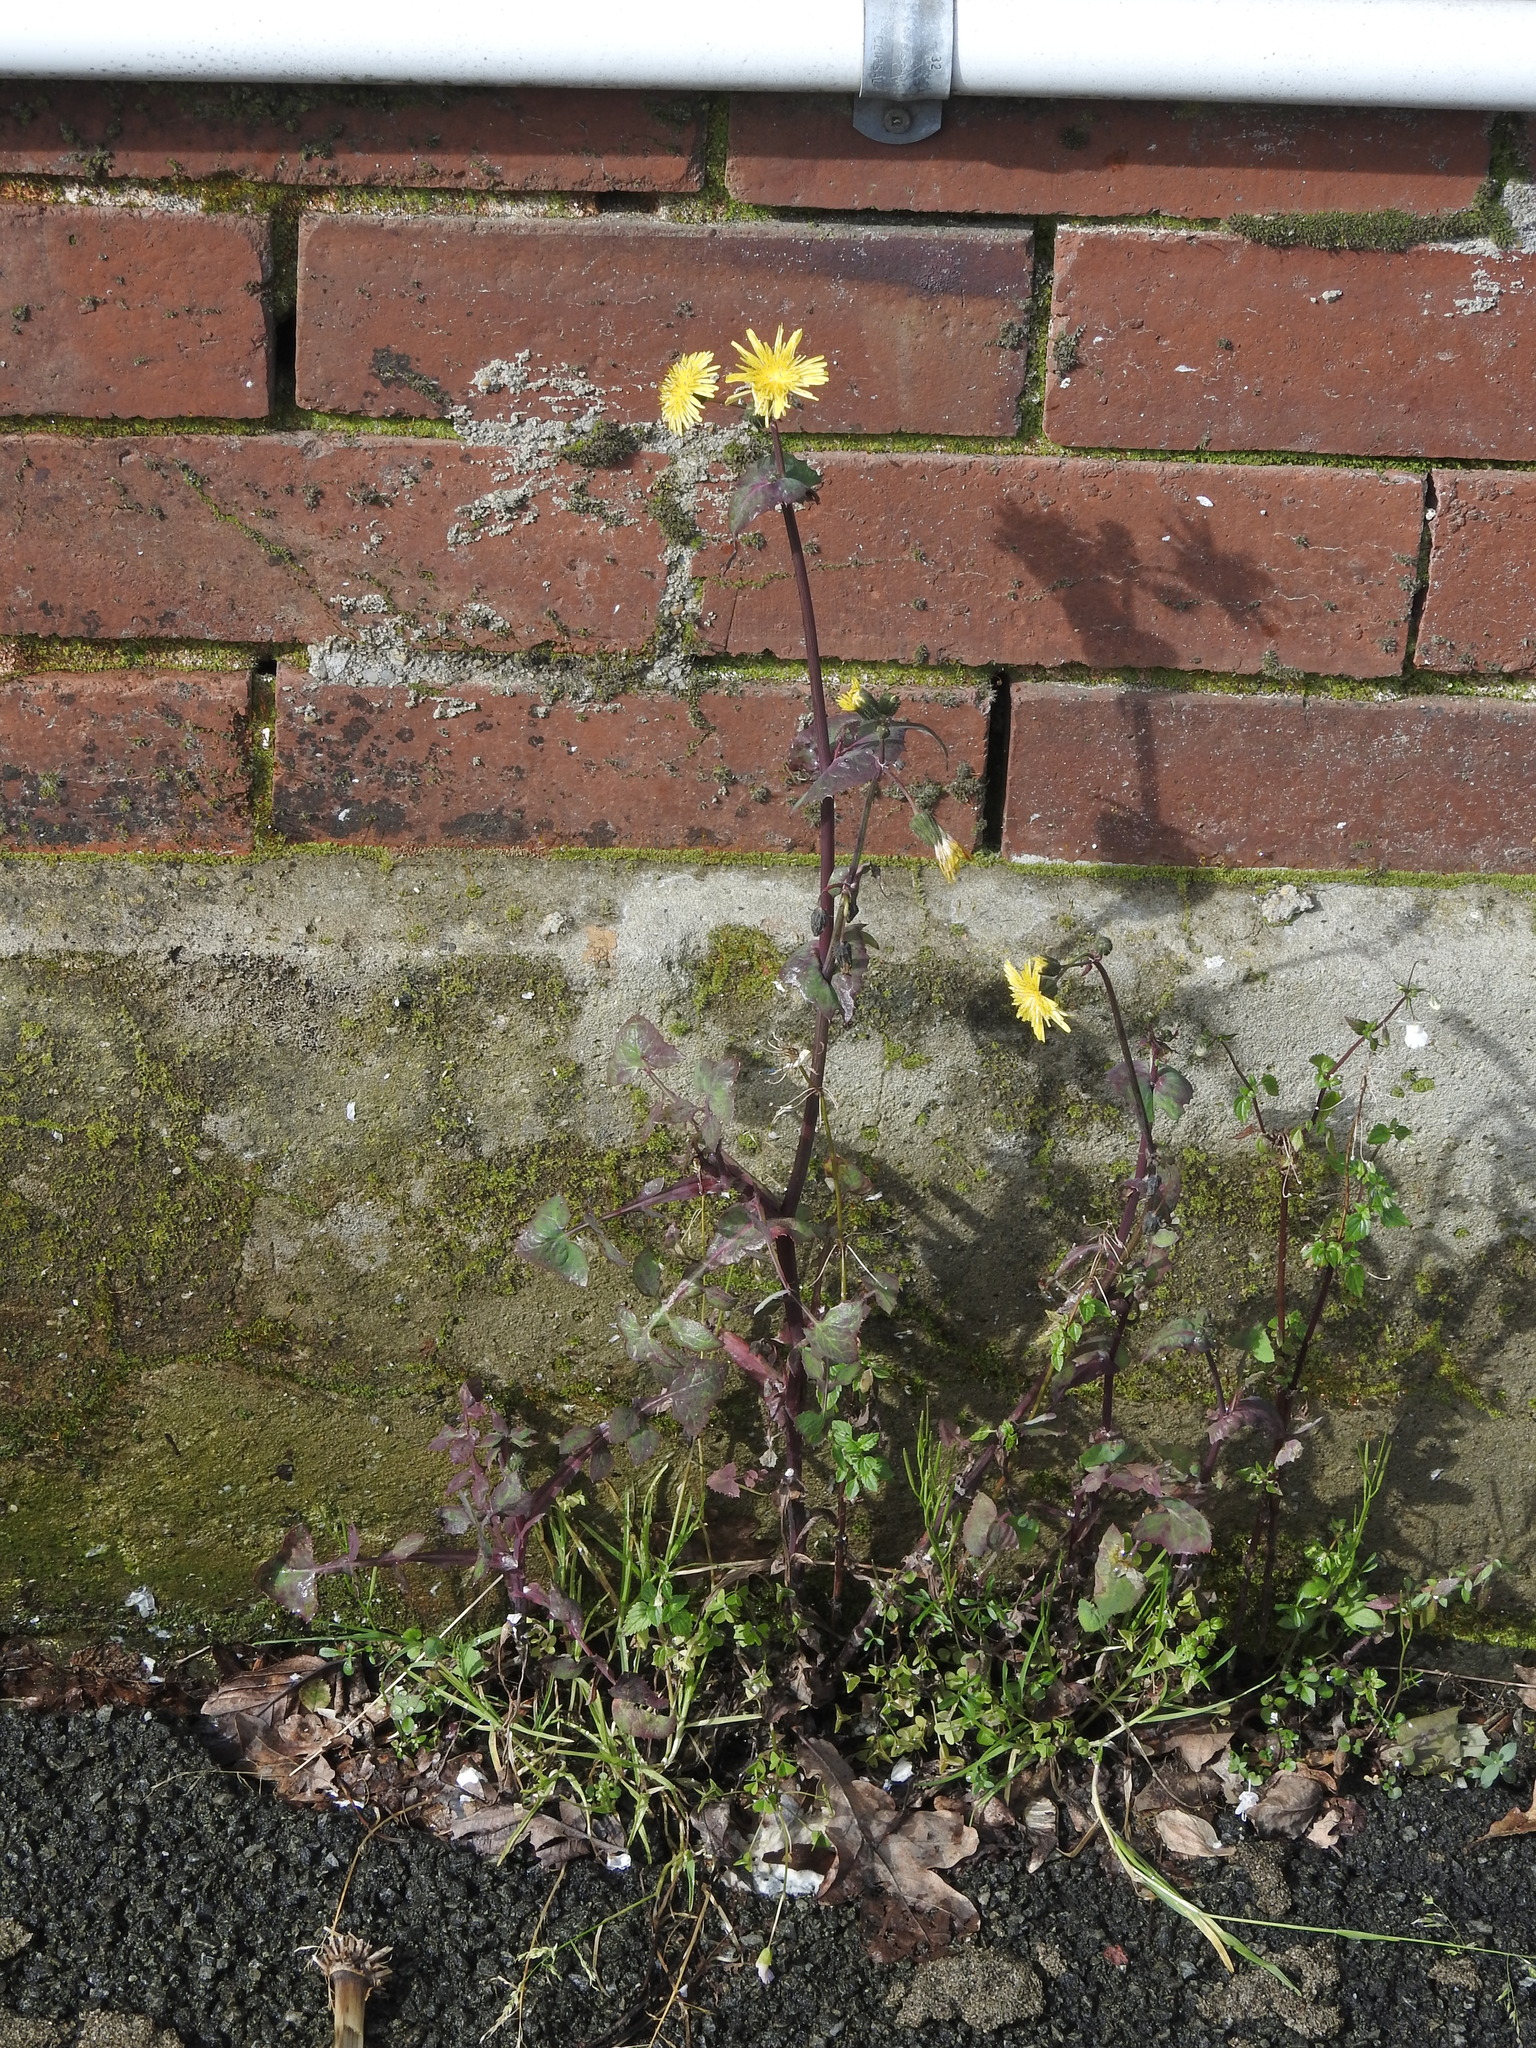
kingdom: Plantae
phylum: Tracheophyta
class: Magnoliopsida
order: Asterales
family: Asteraceae
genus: Sonchus
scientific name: Sonchus oleraceus
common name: Common sowthistle
